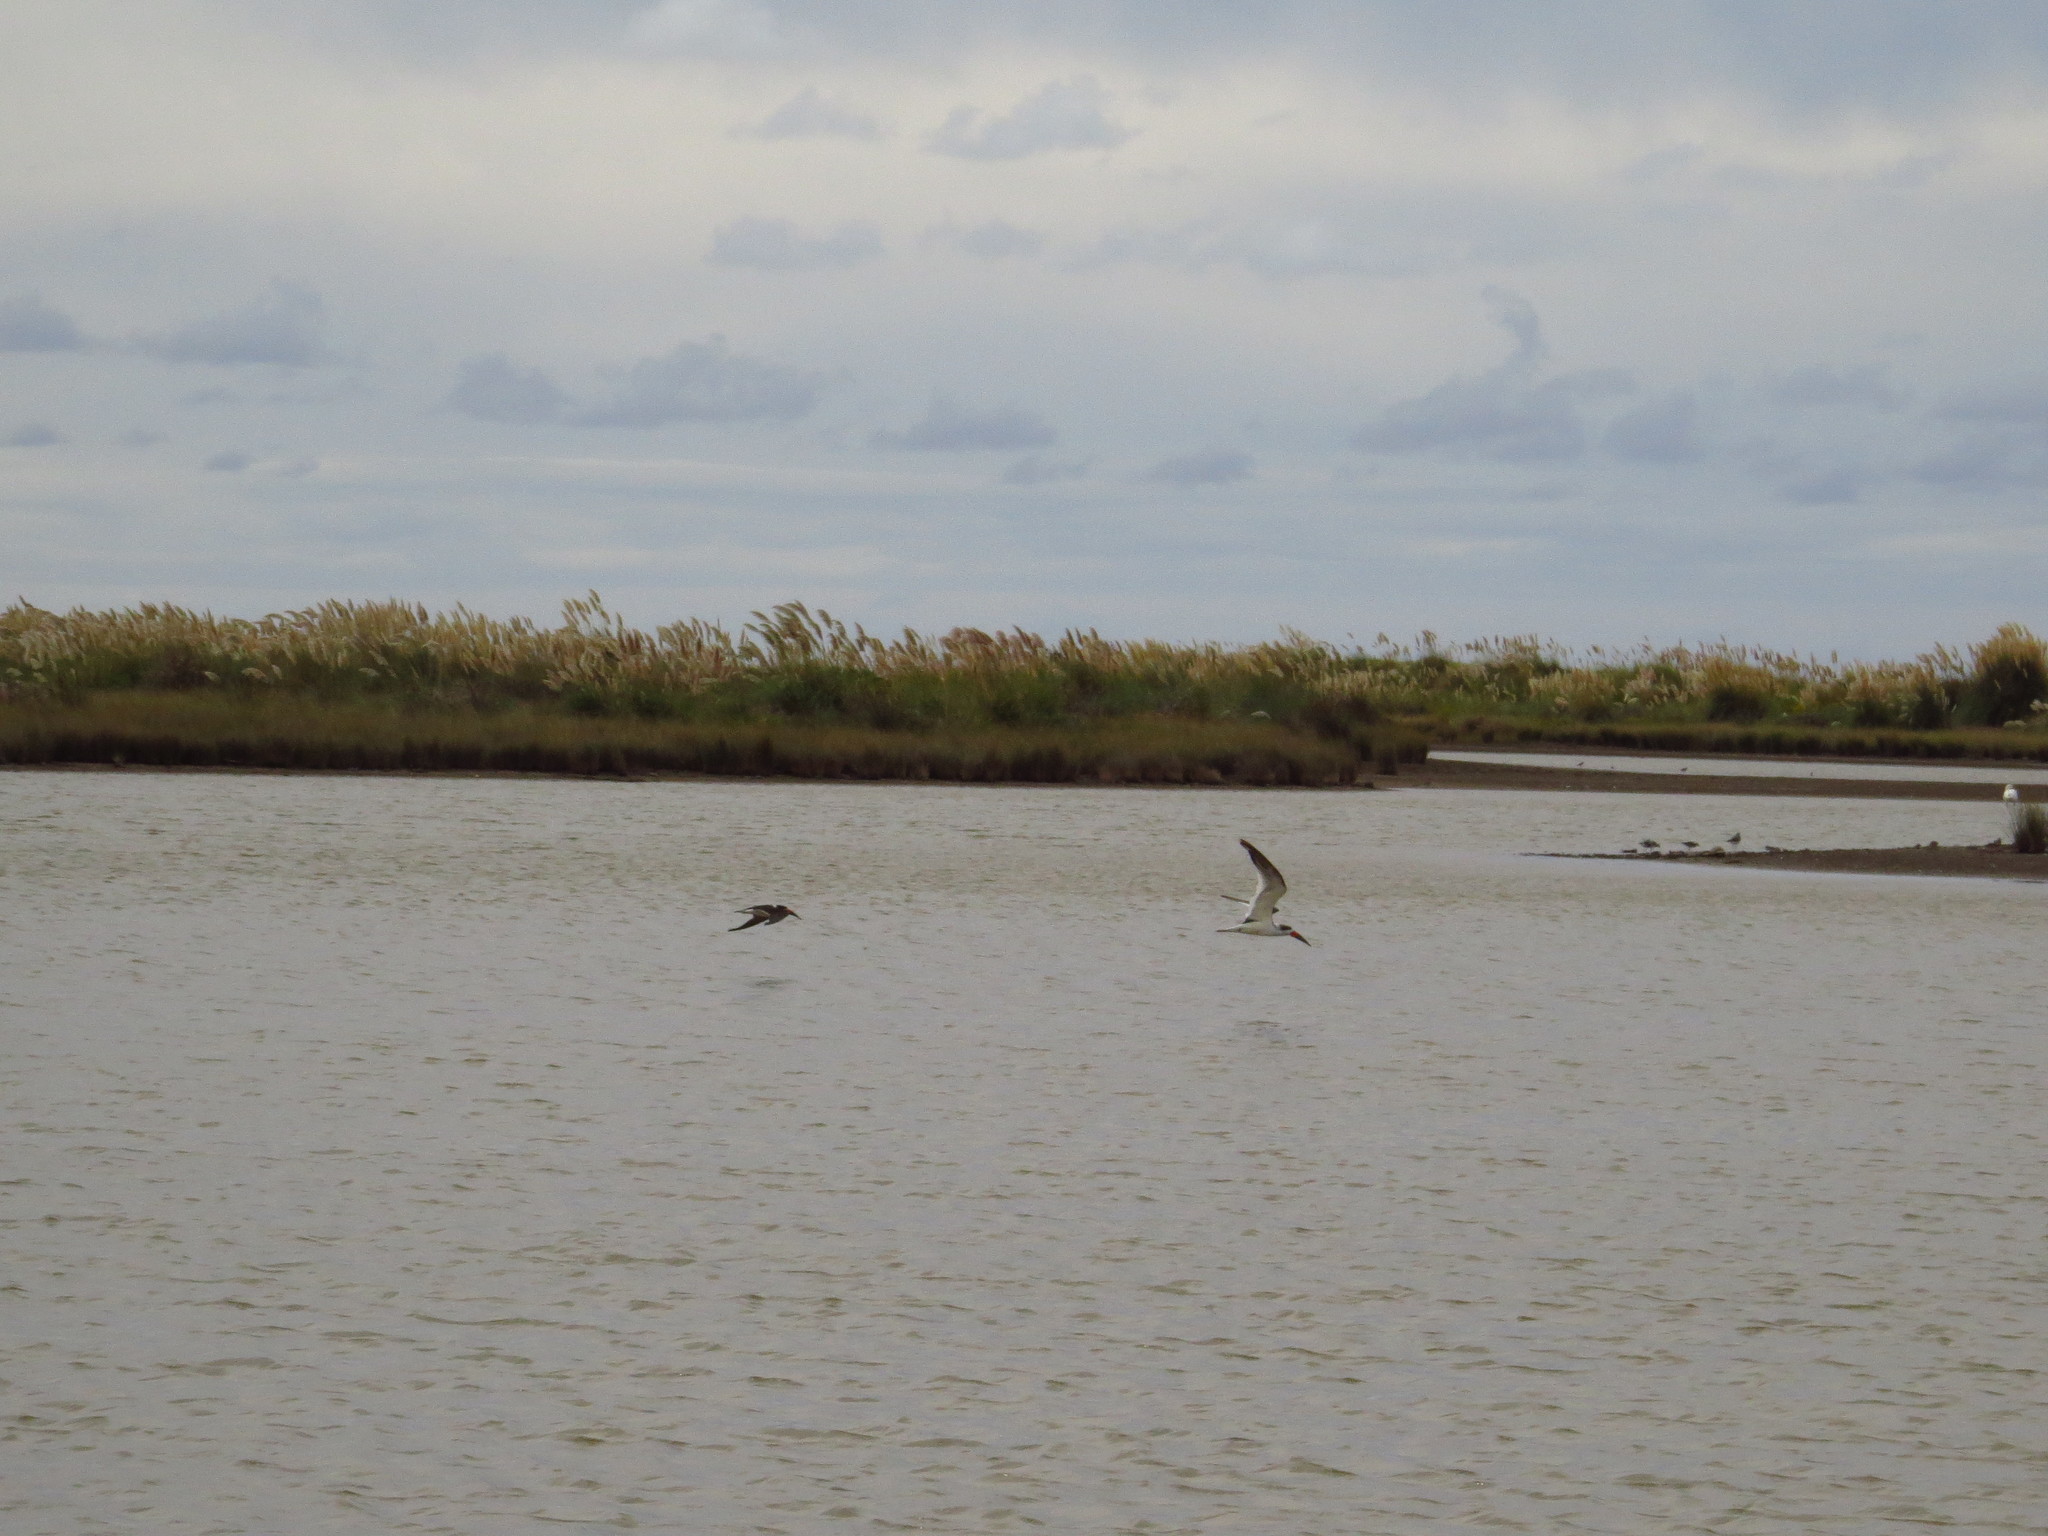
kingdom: Animalia
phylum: Chordata
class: Aves
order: Charadriiformes
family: Laridae
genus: Rynchops
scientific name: Rynchops niger
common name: Black skimmer
